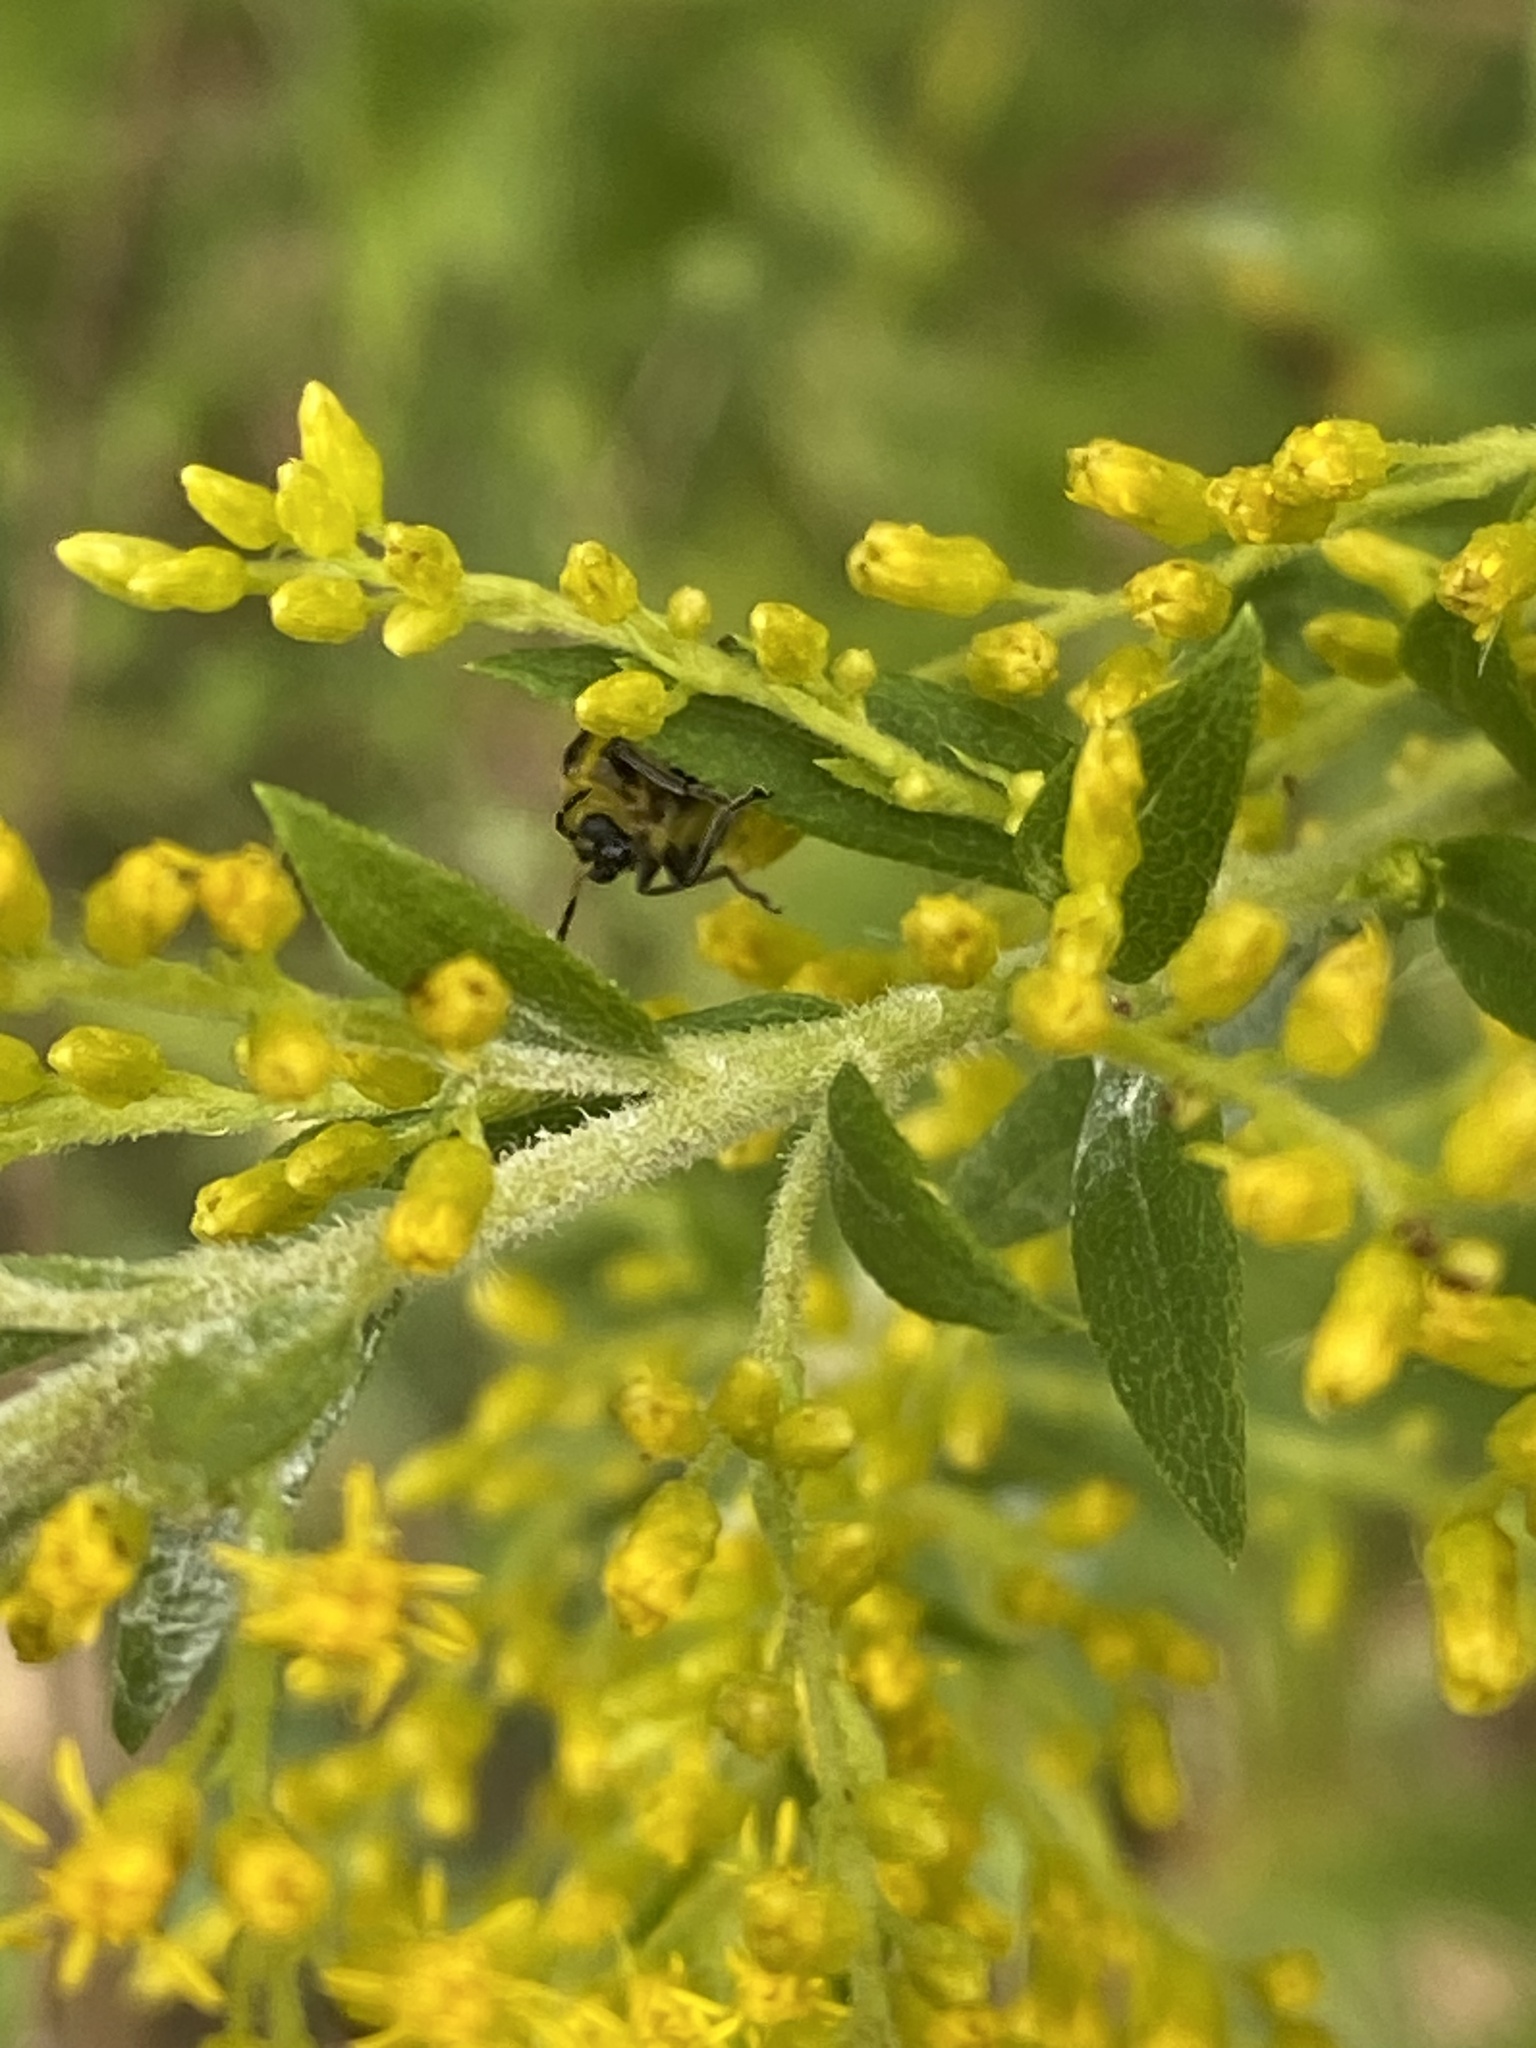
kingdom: Animalia
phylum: Arthropoda
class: Insecta
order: Coleoptera
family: Chrysomelidae
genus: Diabrotica
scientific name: Diabrotica undecimpunctata
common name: Spotted cucumber beetle
